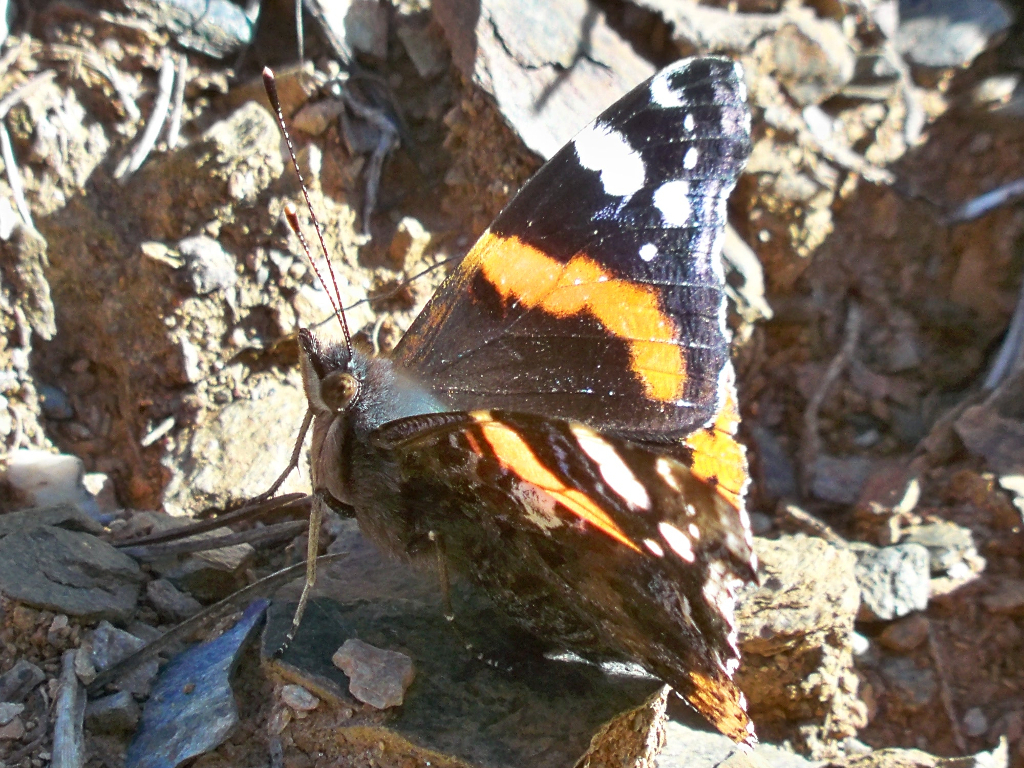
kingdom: Animalia
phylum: Arthropoda
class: Insecta
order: Lepidoptera
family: Nymphalidae
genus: Vanessa
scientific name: Vanessa atalanta
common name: Red admiral
